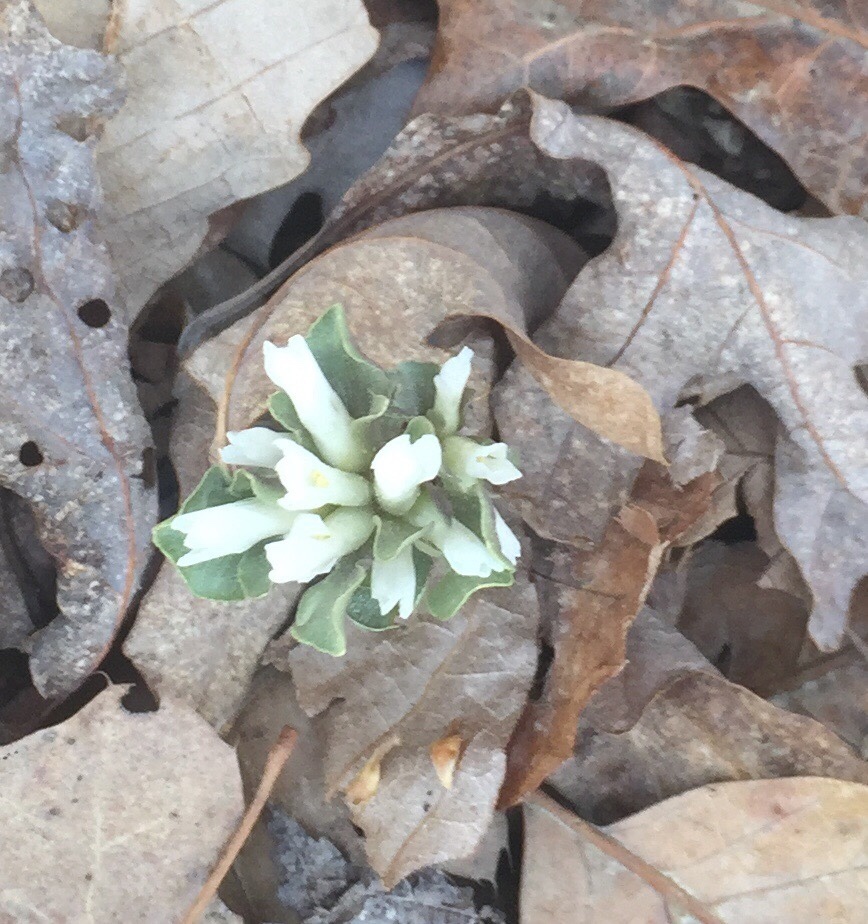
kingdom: Plantae
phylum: Tracheophyta
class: Magnoliopsida
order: Gentianales
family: Gentianaceae
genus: Obolaria
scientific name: Obolaria virginica
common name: Pennywort
